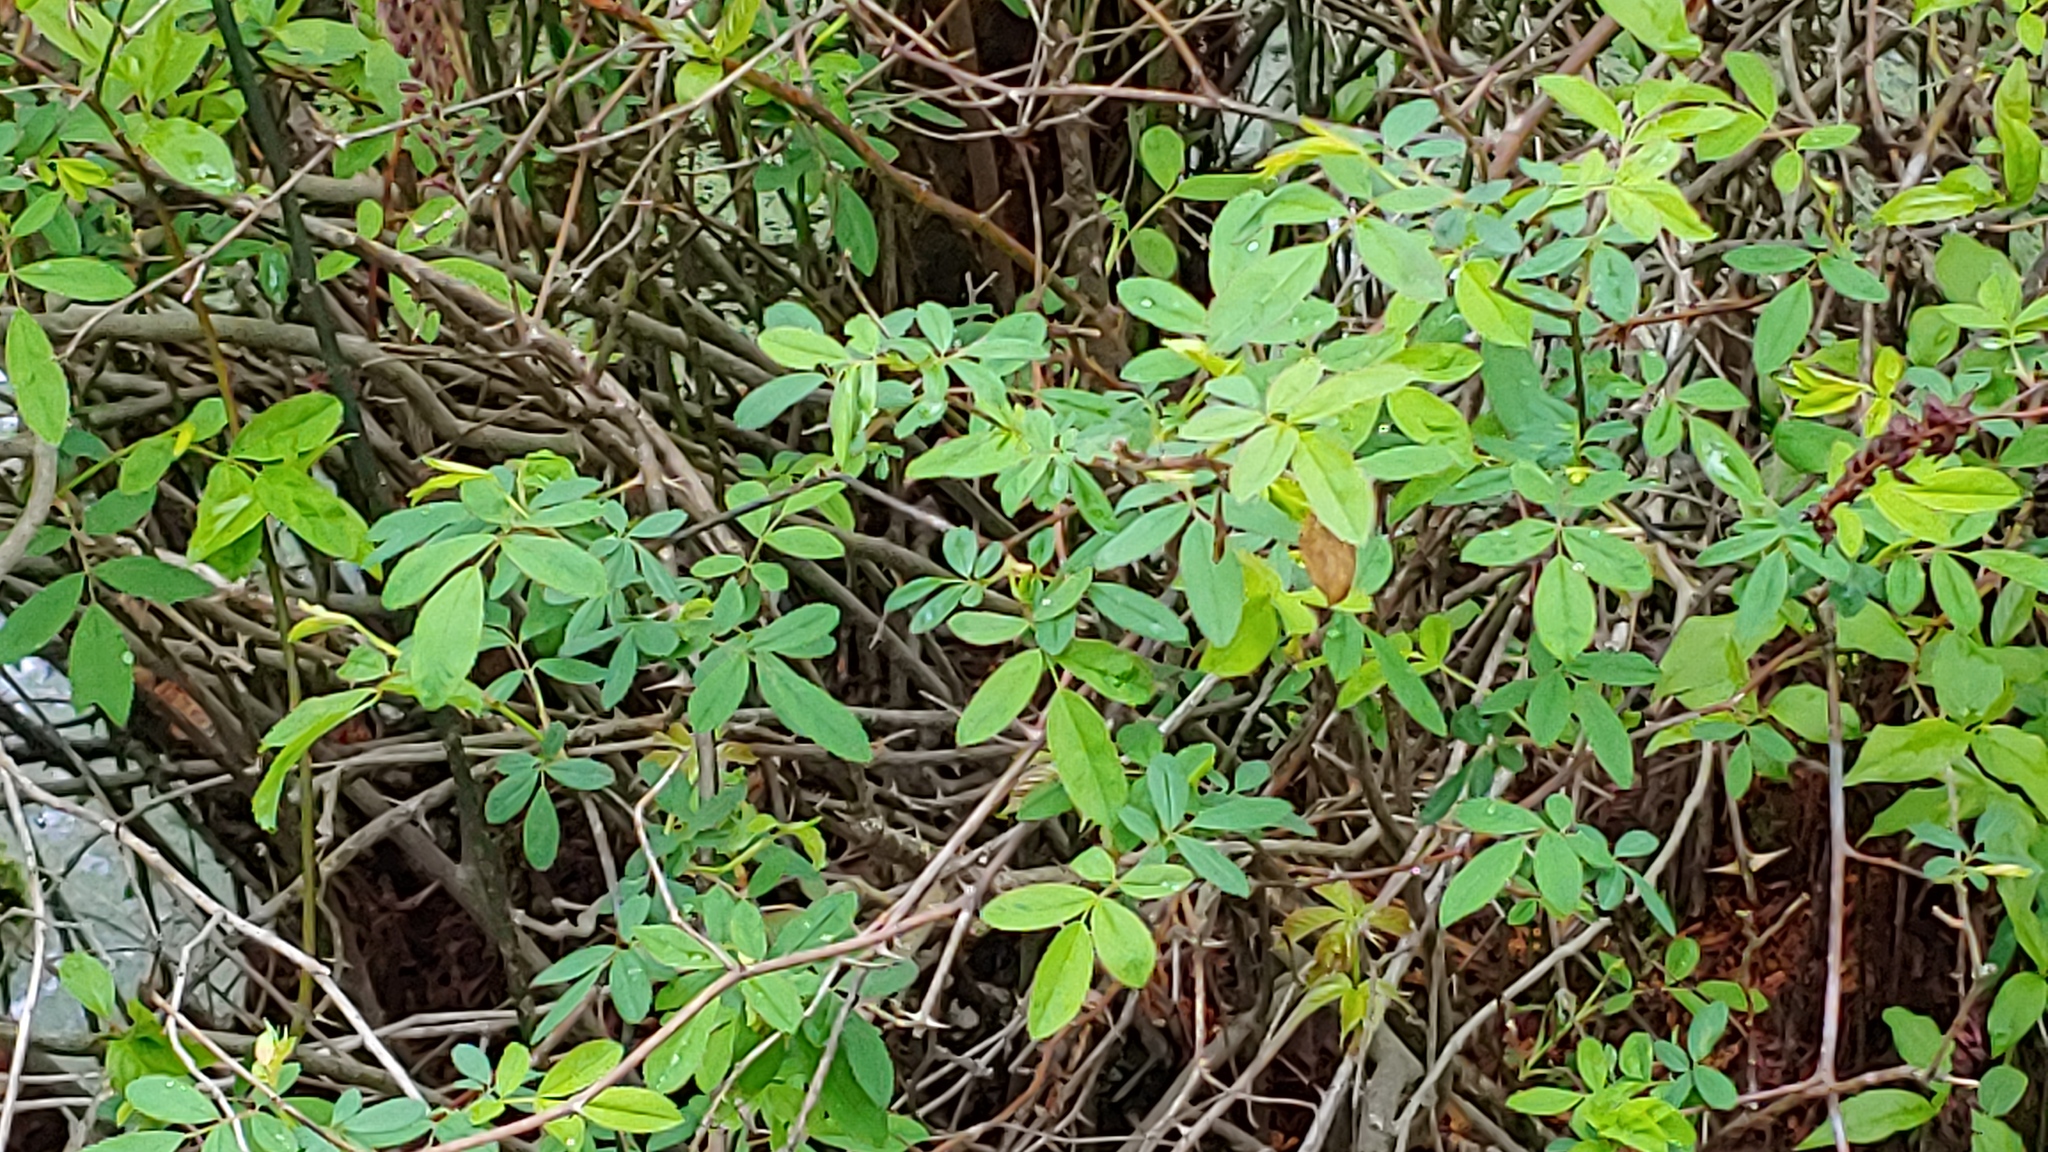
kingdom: Plantae
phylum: Tracheophyta
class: Magnoliopsida
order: Rosales
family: Rosaceae
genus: Rosa
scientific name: Rosa palustris
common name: Swamp rose
